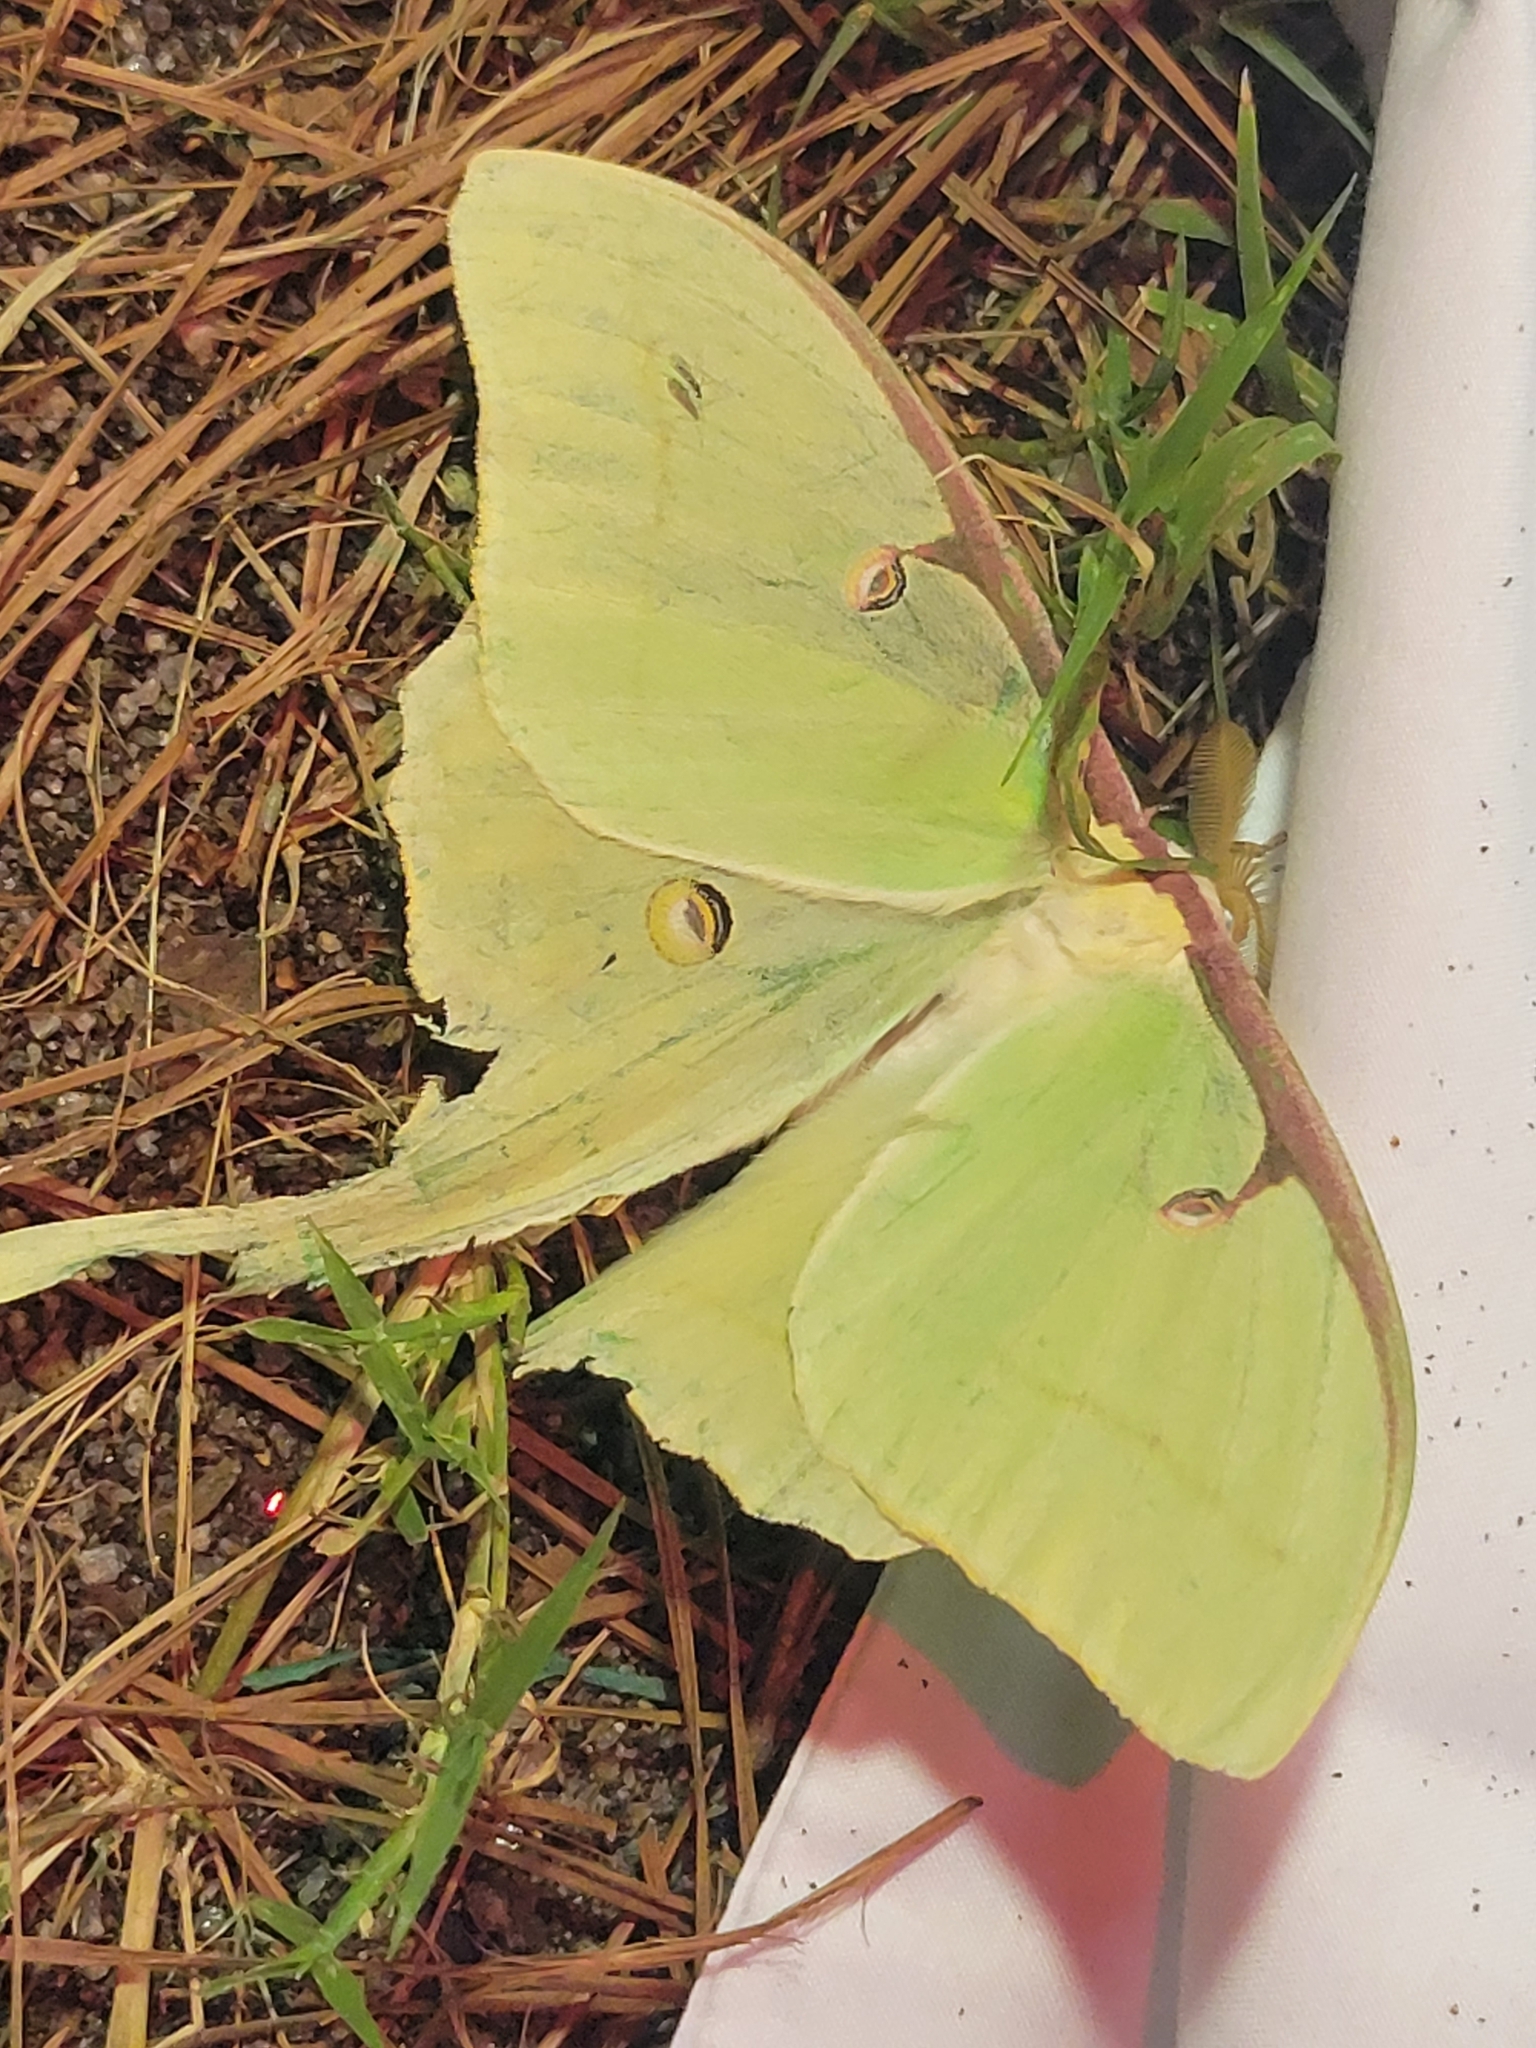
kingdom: Animalia
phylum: Arthropoda
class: Insecta
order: Lepidoptera
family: Saturniidae
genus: Actias
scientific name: Actias luna
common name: Luna moth
